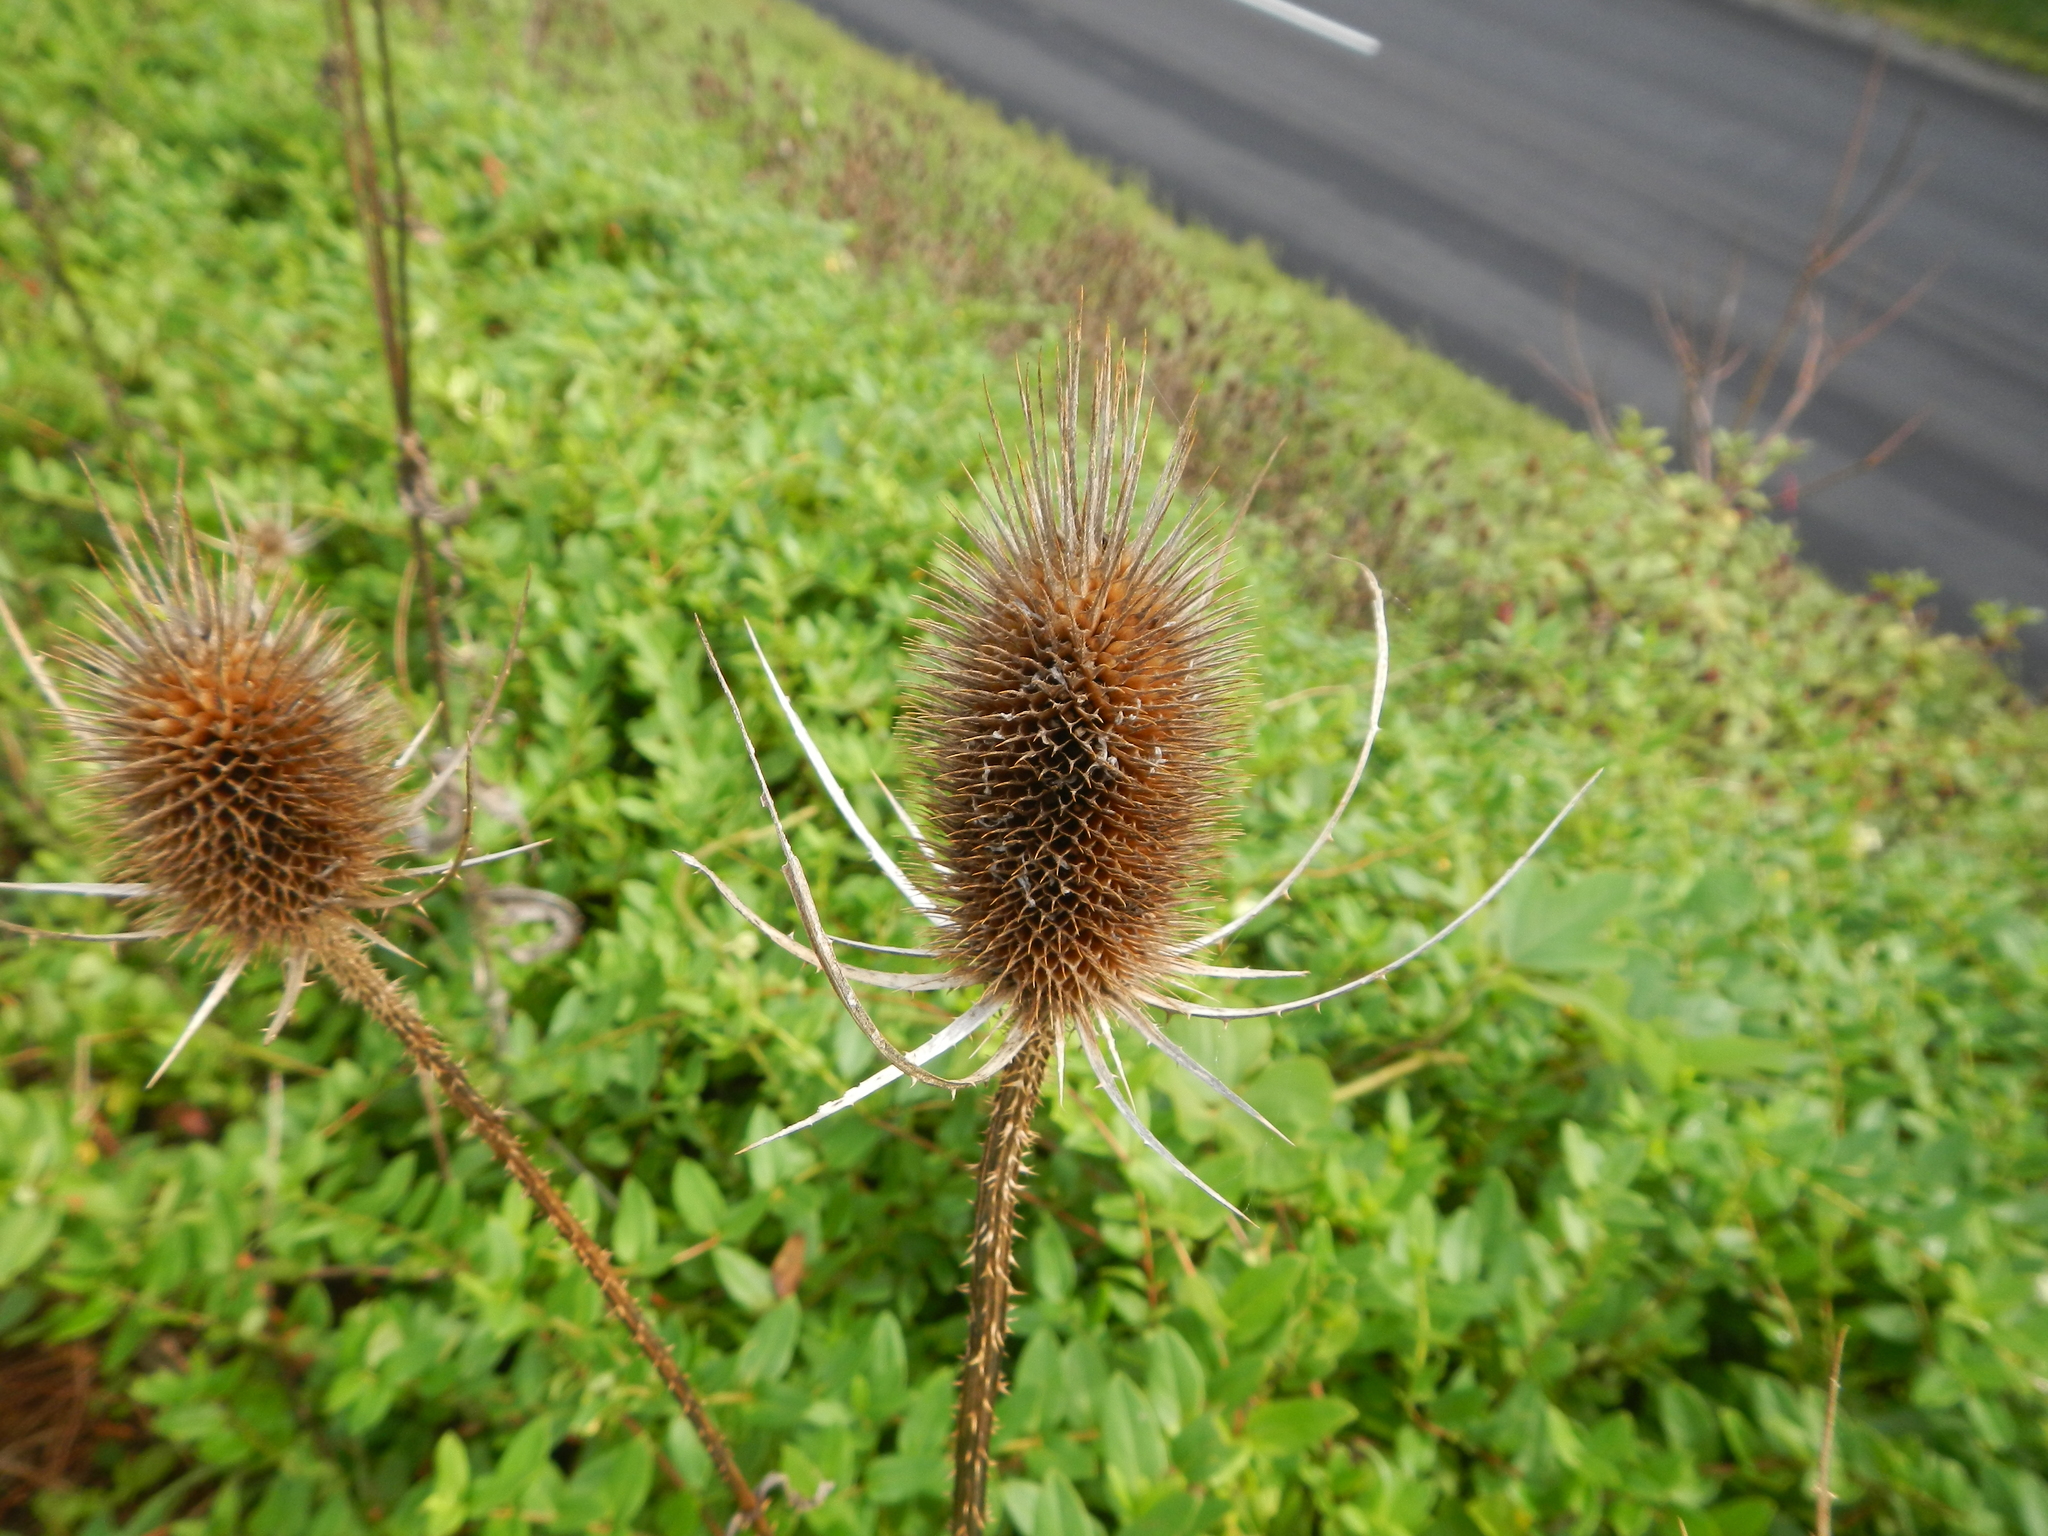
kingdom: Plantae
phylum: Tracheophyta
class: Magnoliopsida
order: Dipsacales
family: Caprifoliaceae
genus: Dipsacus
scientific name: Dipsacus fullonum
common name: Teasel
